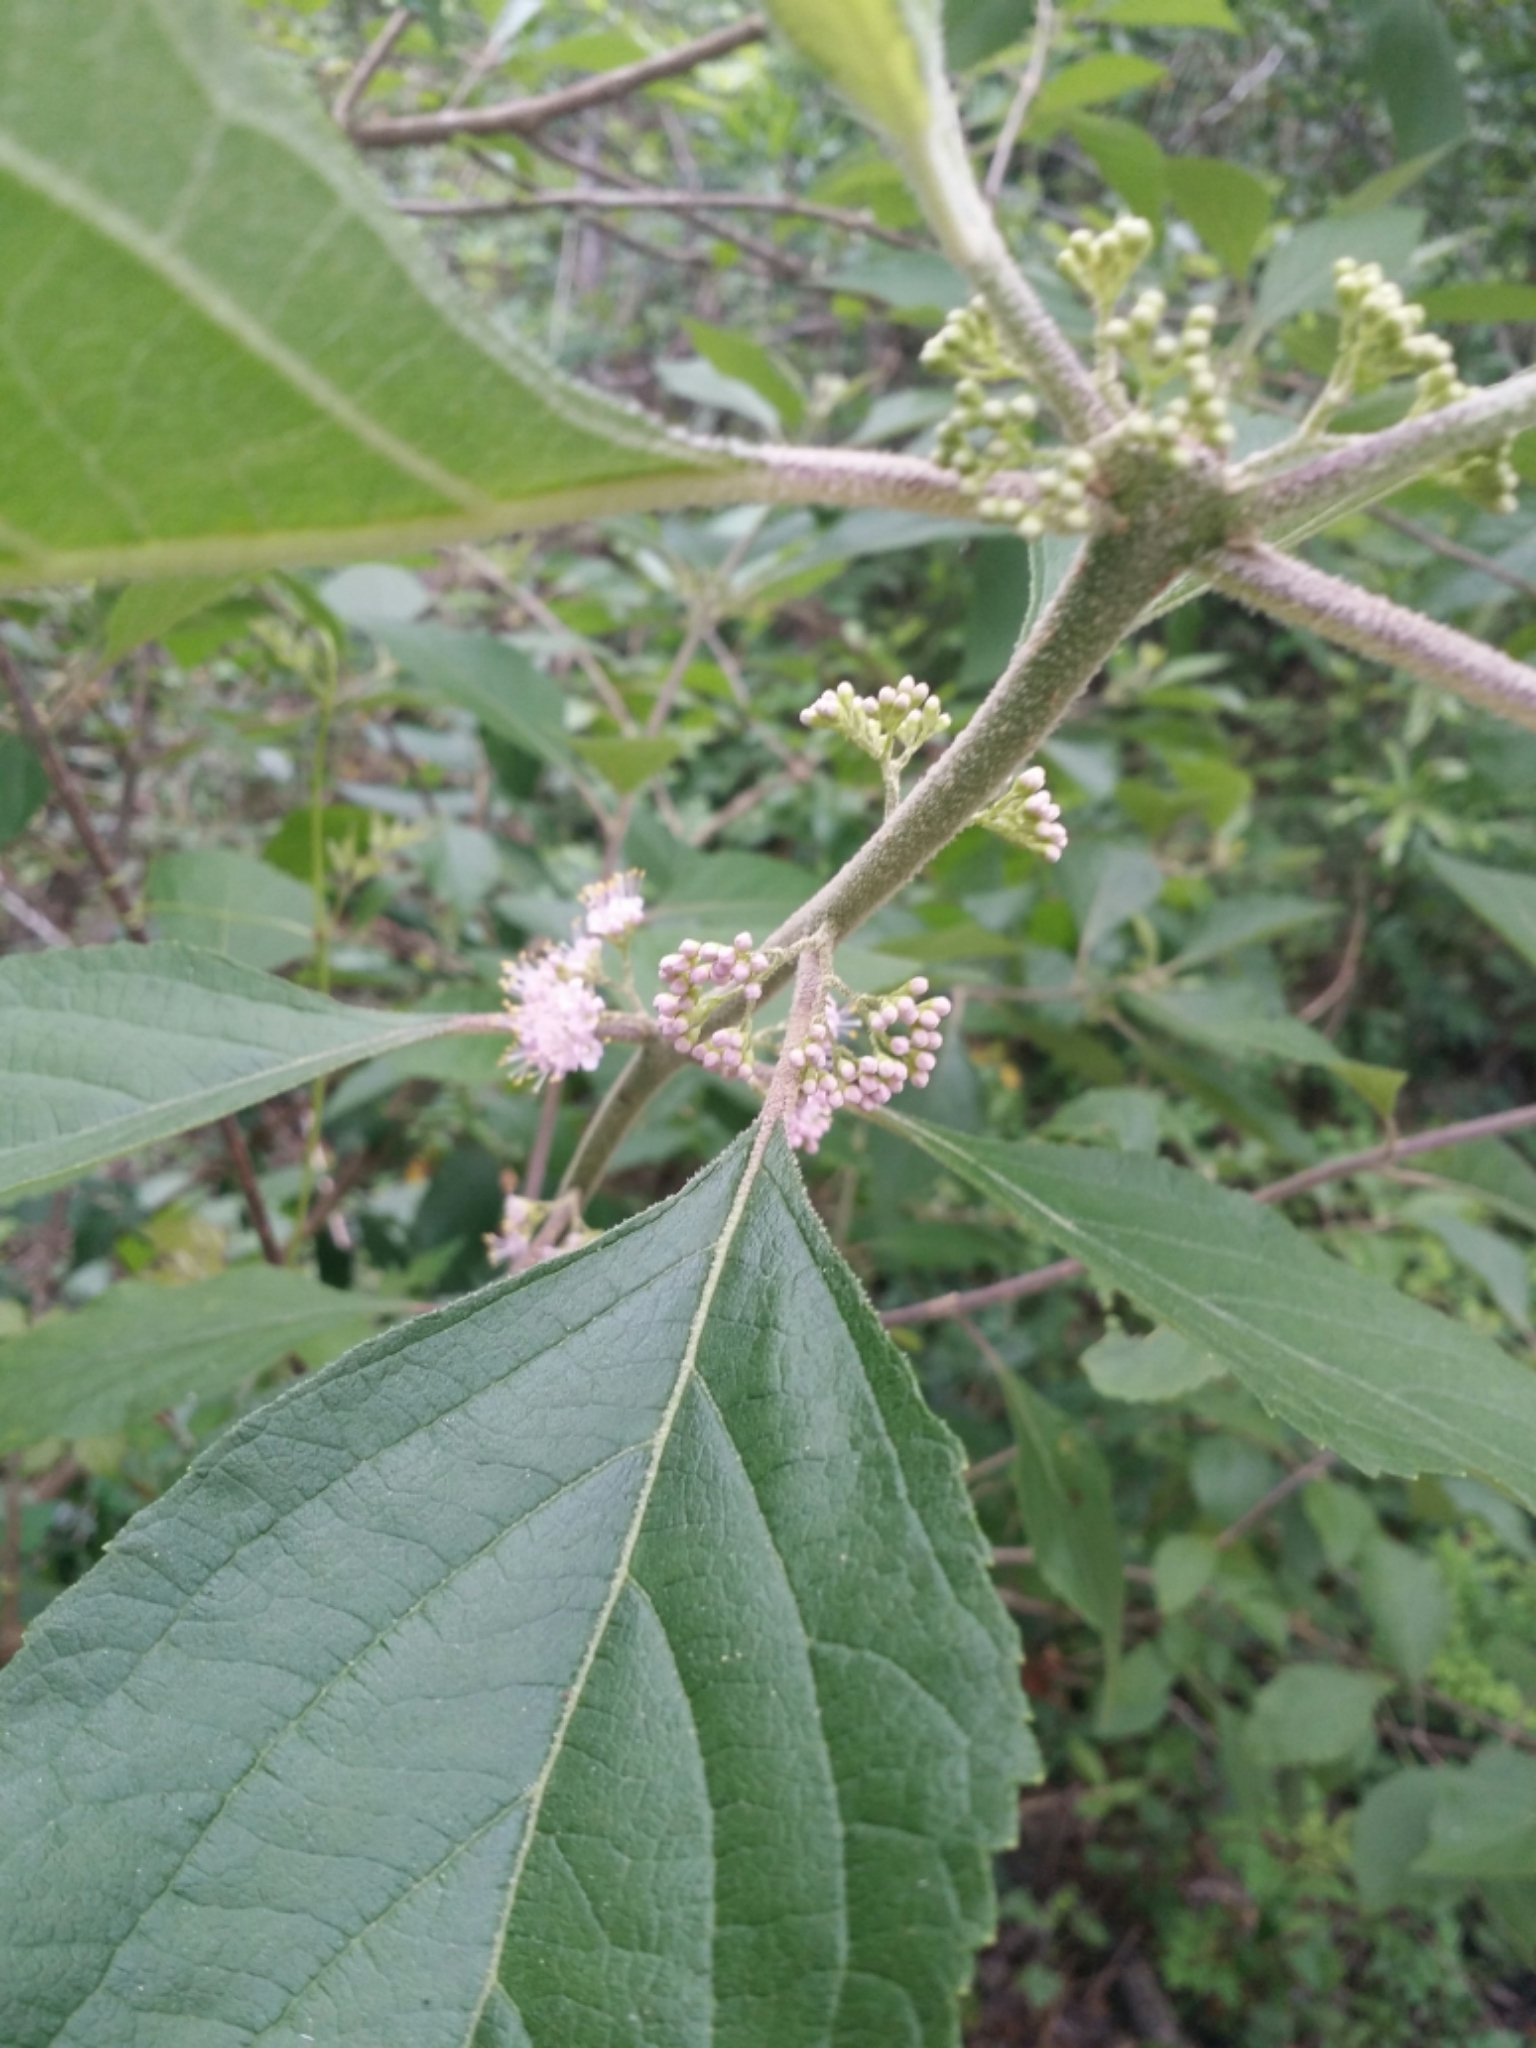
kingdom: Plantae
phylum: Tracheophyta
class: Magnoliopsida
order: Lamiales
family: Lamiaceae
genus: Callicarpa
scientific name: Callicarpa americana
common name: American beautyberry
